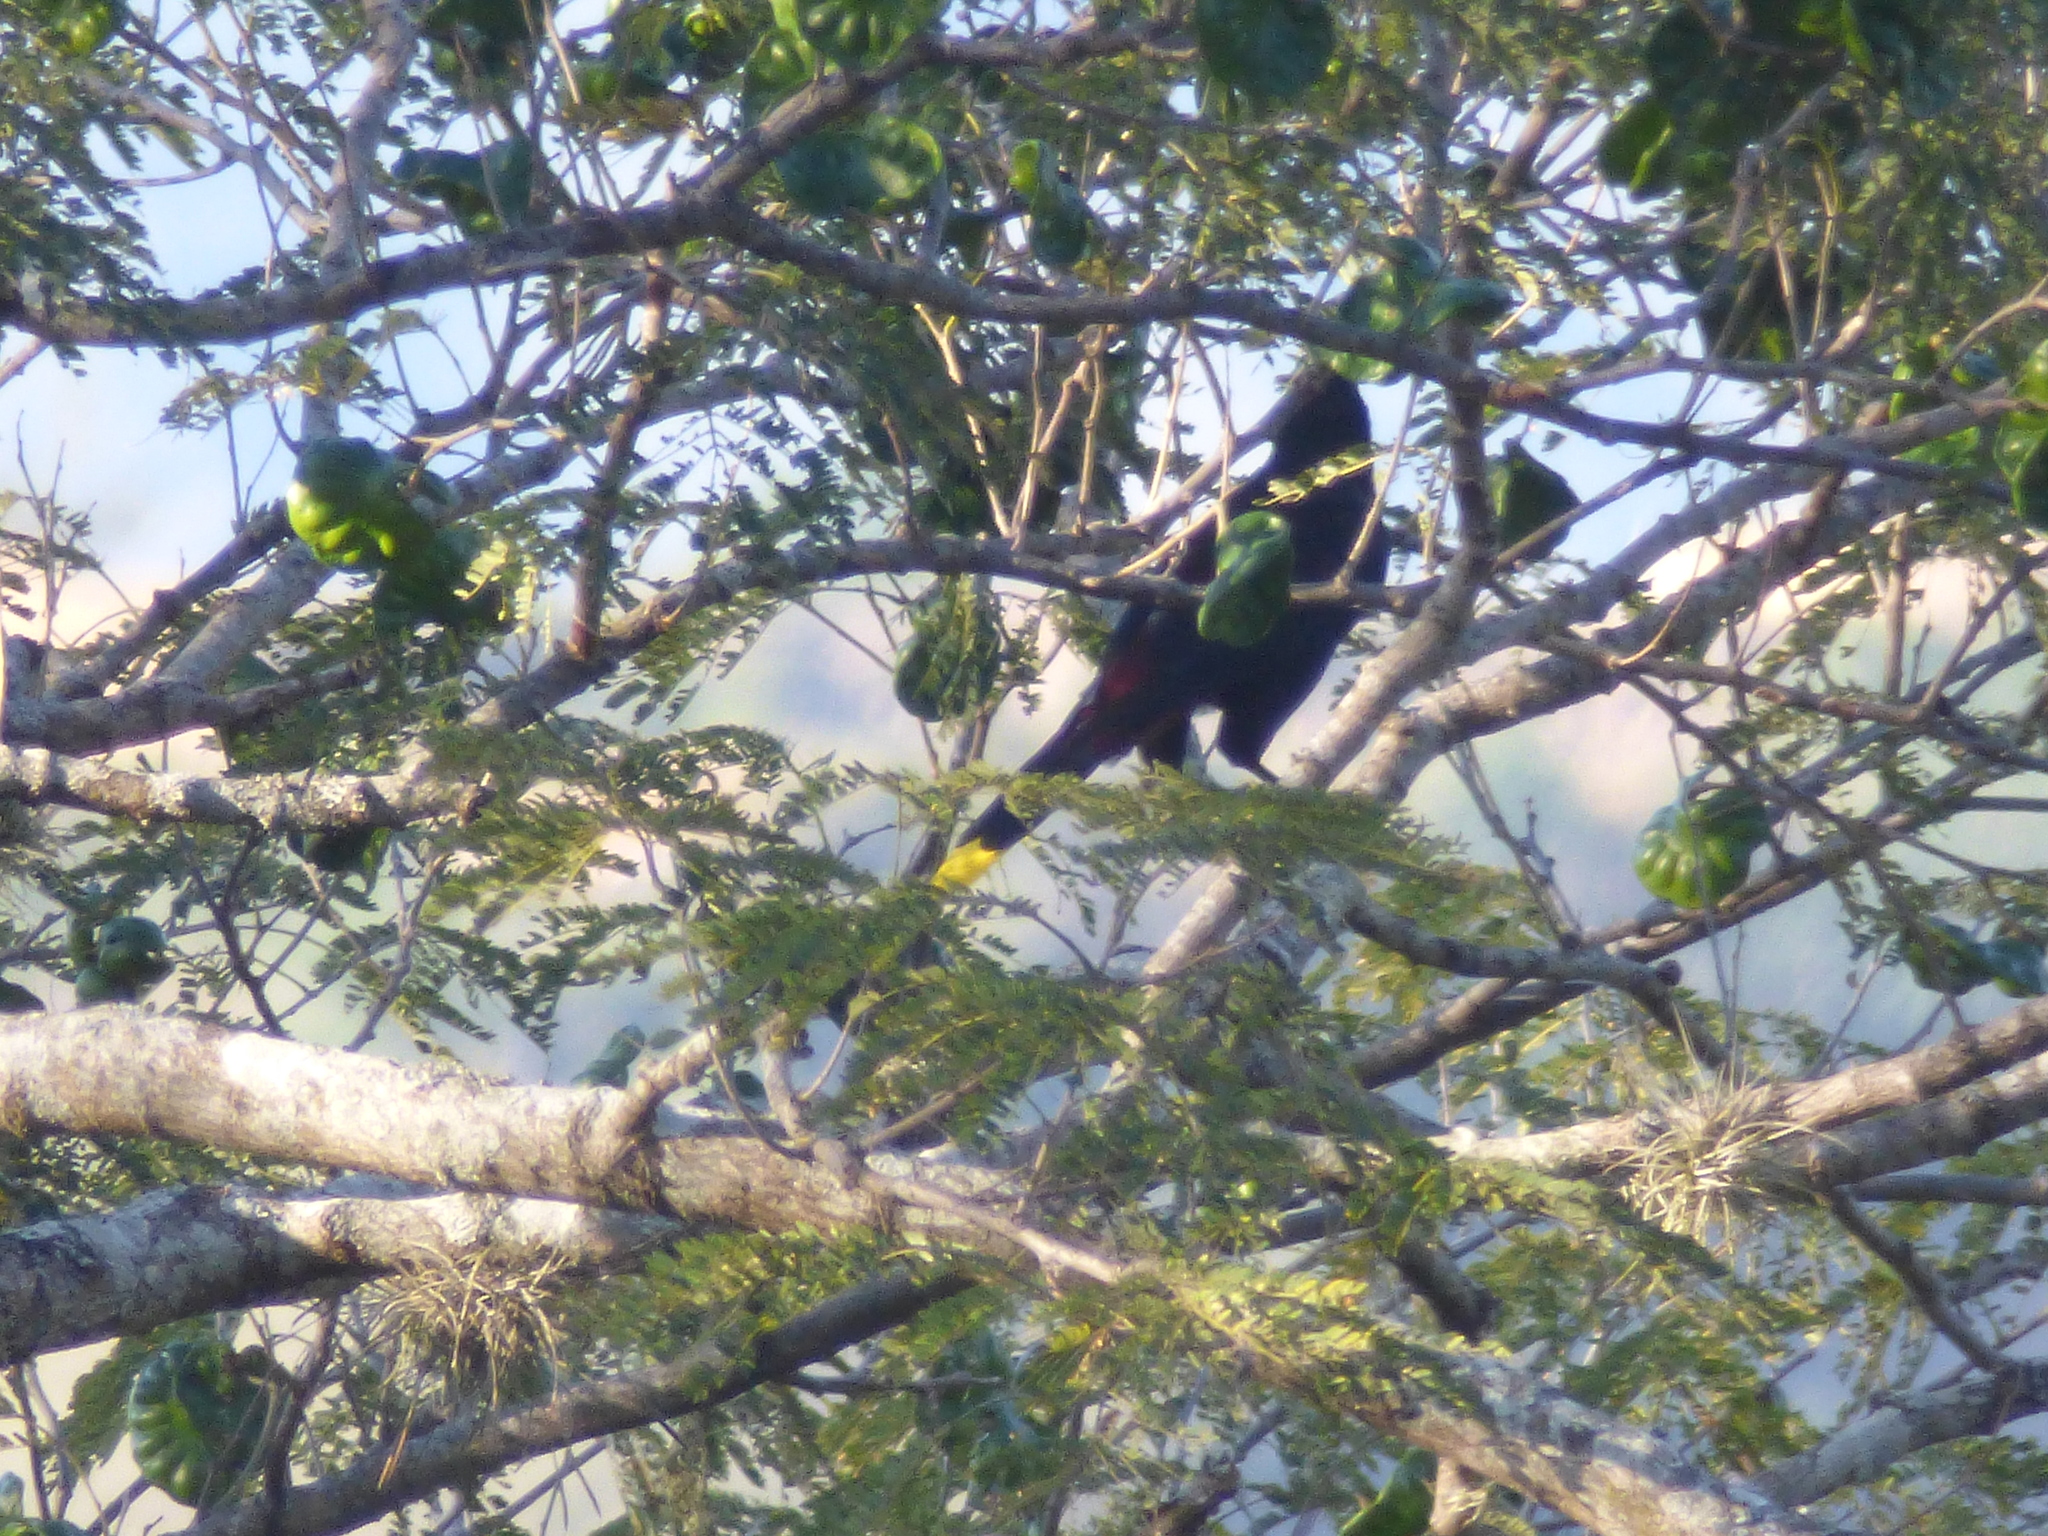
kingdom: Animalia
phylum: Chordata
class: Aves
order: Passeriformes
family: Icteridae
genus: Psarocolius
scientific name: Psarocolius decumanus
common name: Crested oropendola
